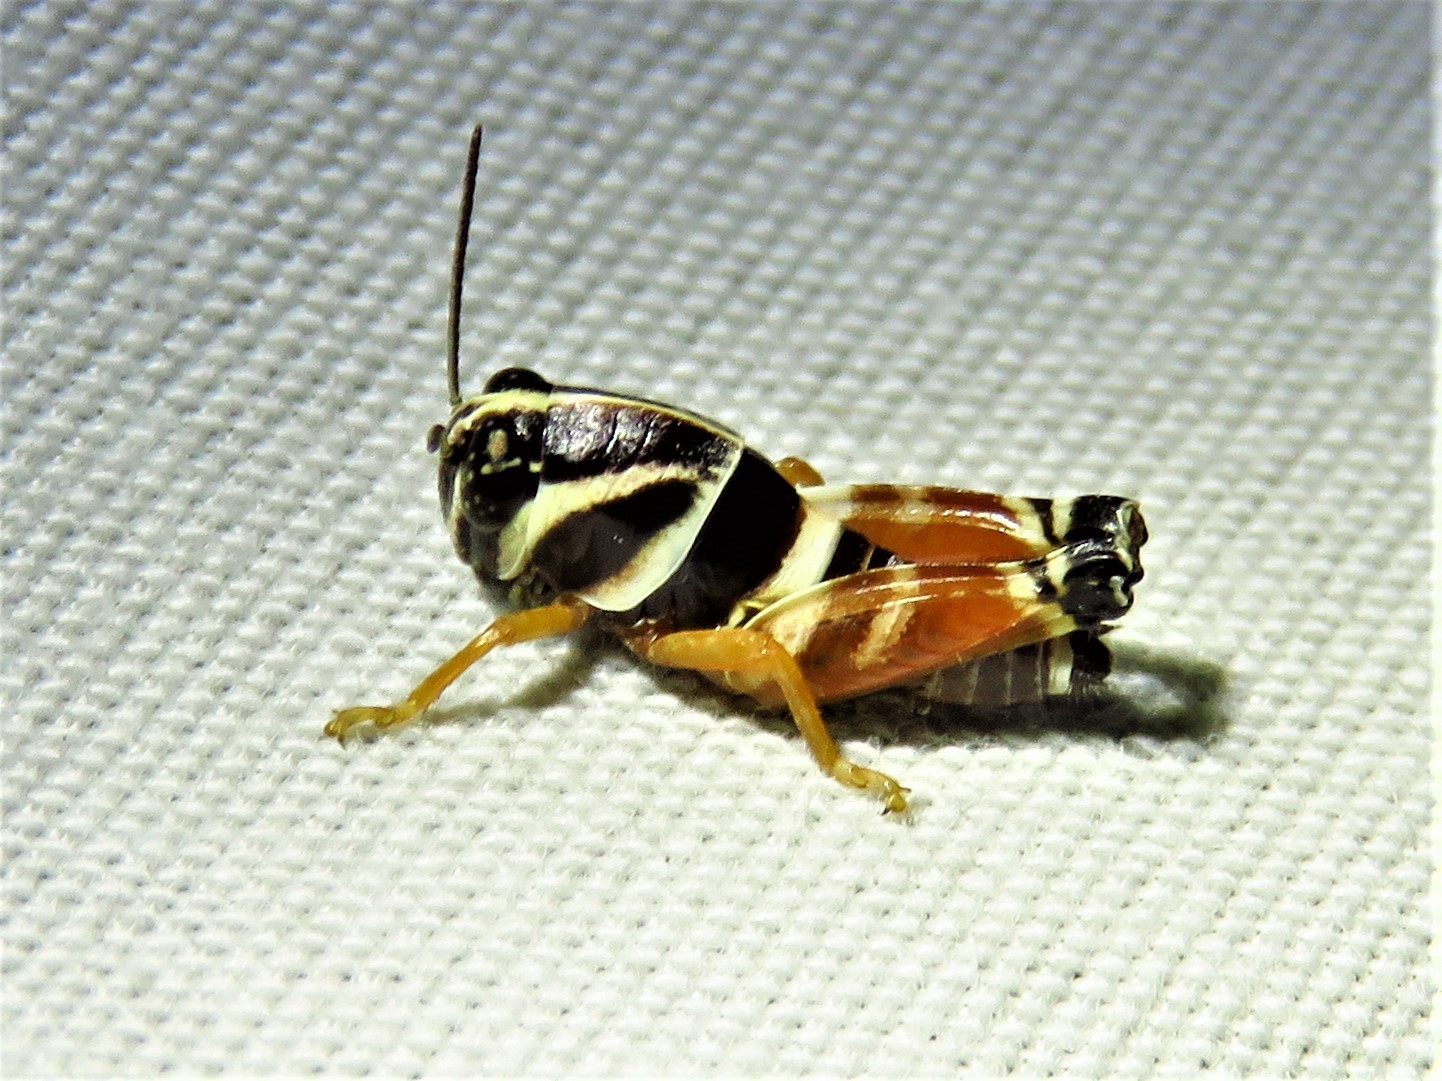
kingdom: Animalia
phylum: Arthropoda
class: Insecta
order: Orthoptera
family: Acrididae
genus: Aidemona
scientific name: Aidemona azteca
